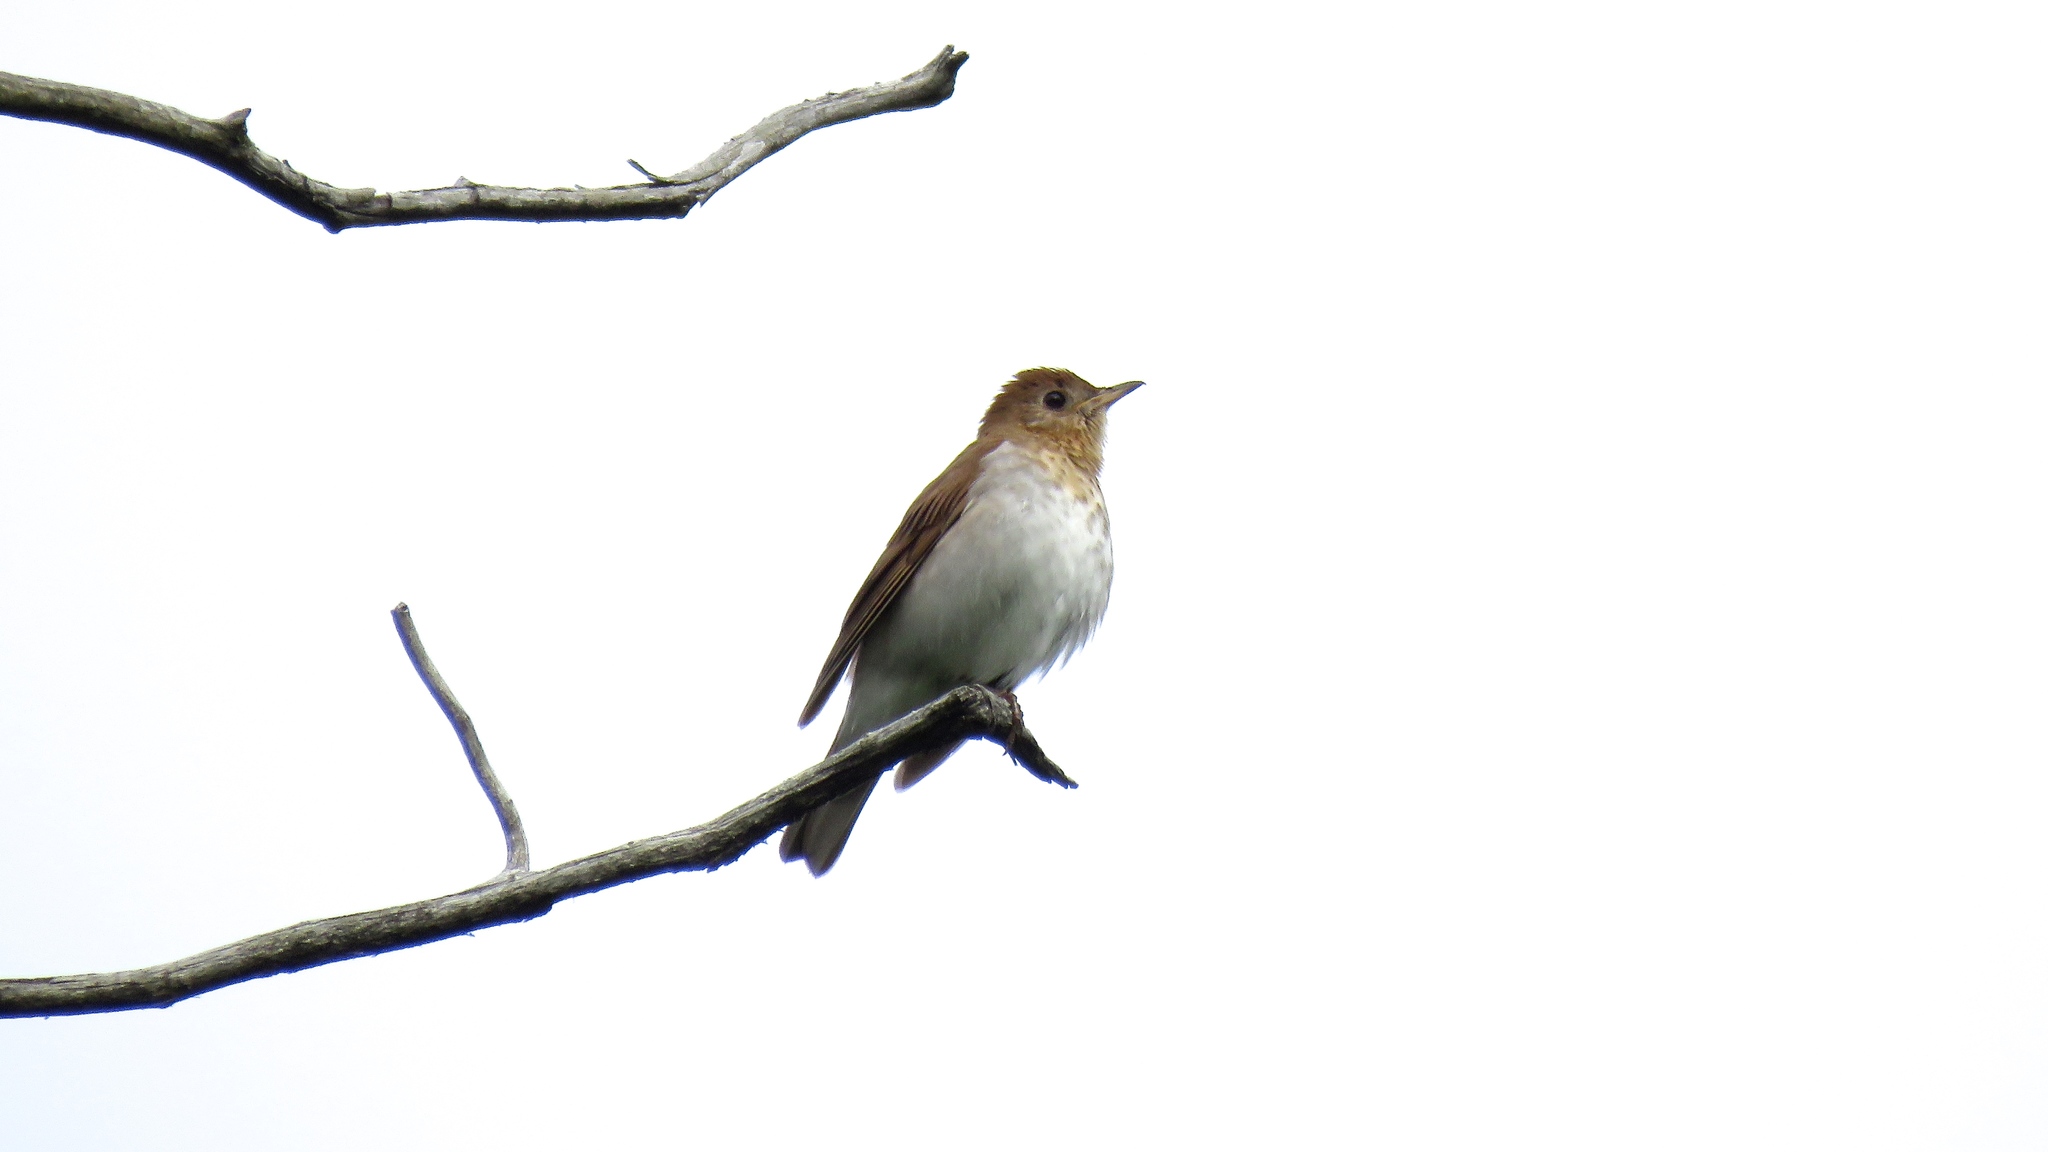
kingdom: Animalia
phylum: Chordata
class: Aves
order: Passeriformes
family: Turdidae
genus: Catharus
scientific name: Catharus fuscescens
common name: Veery
